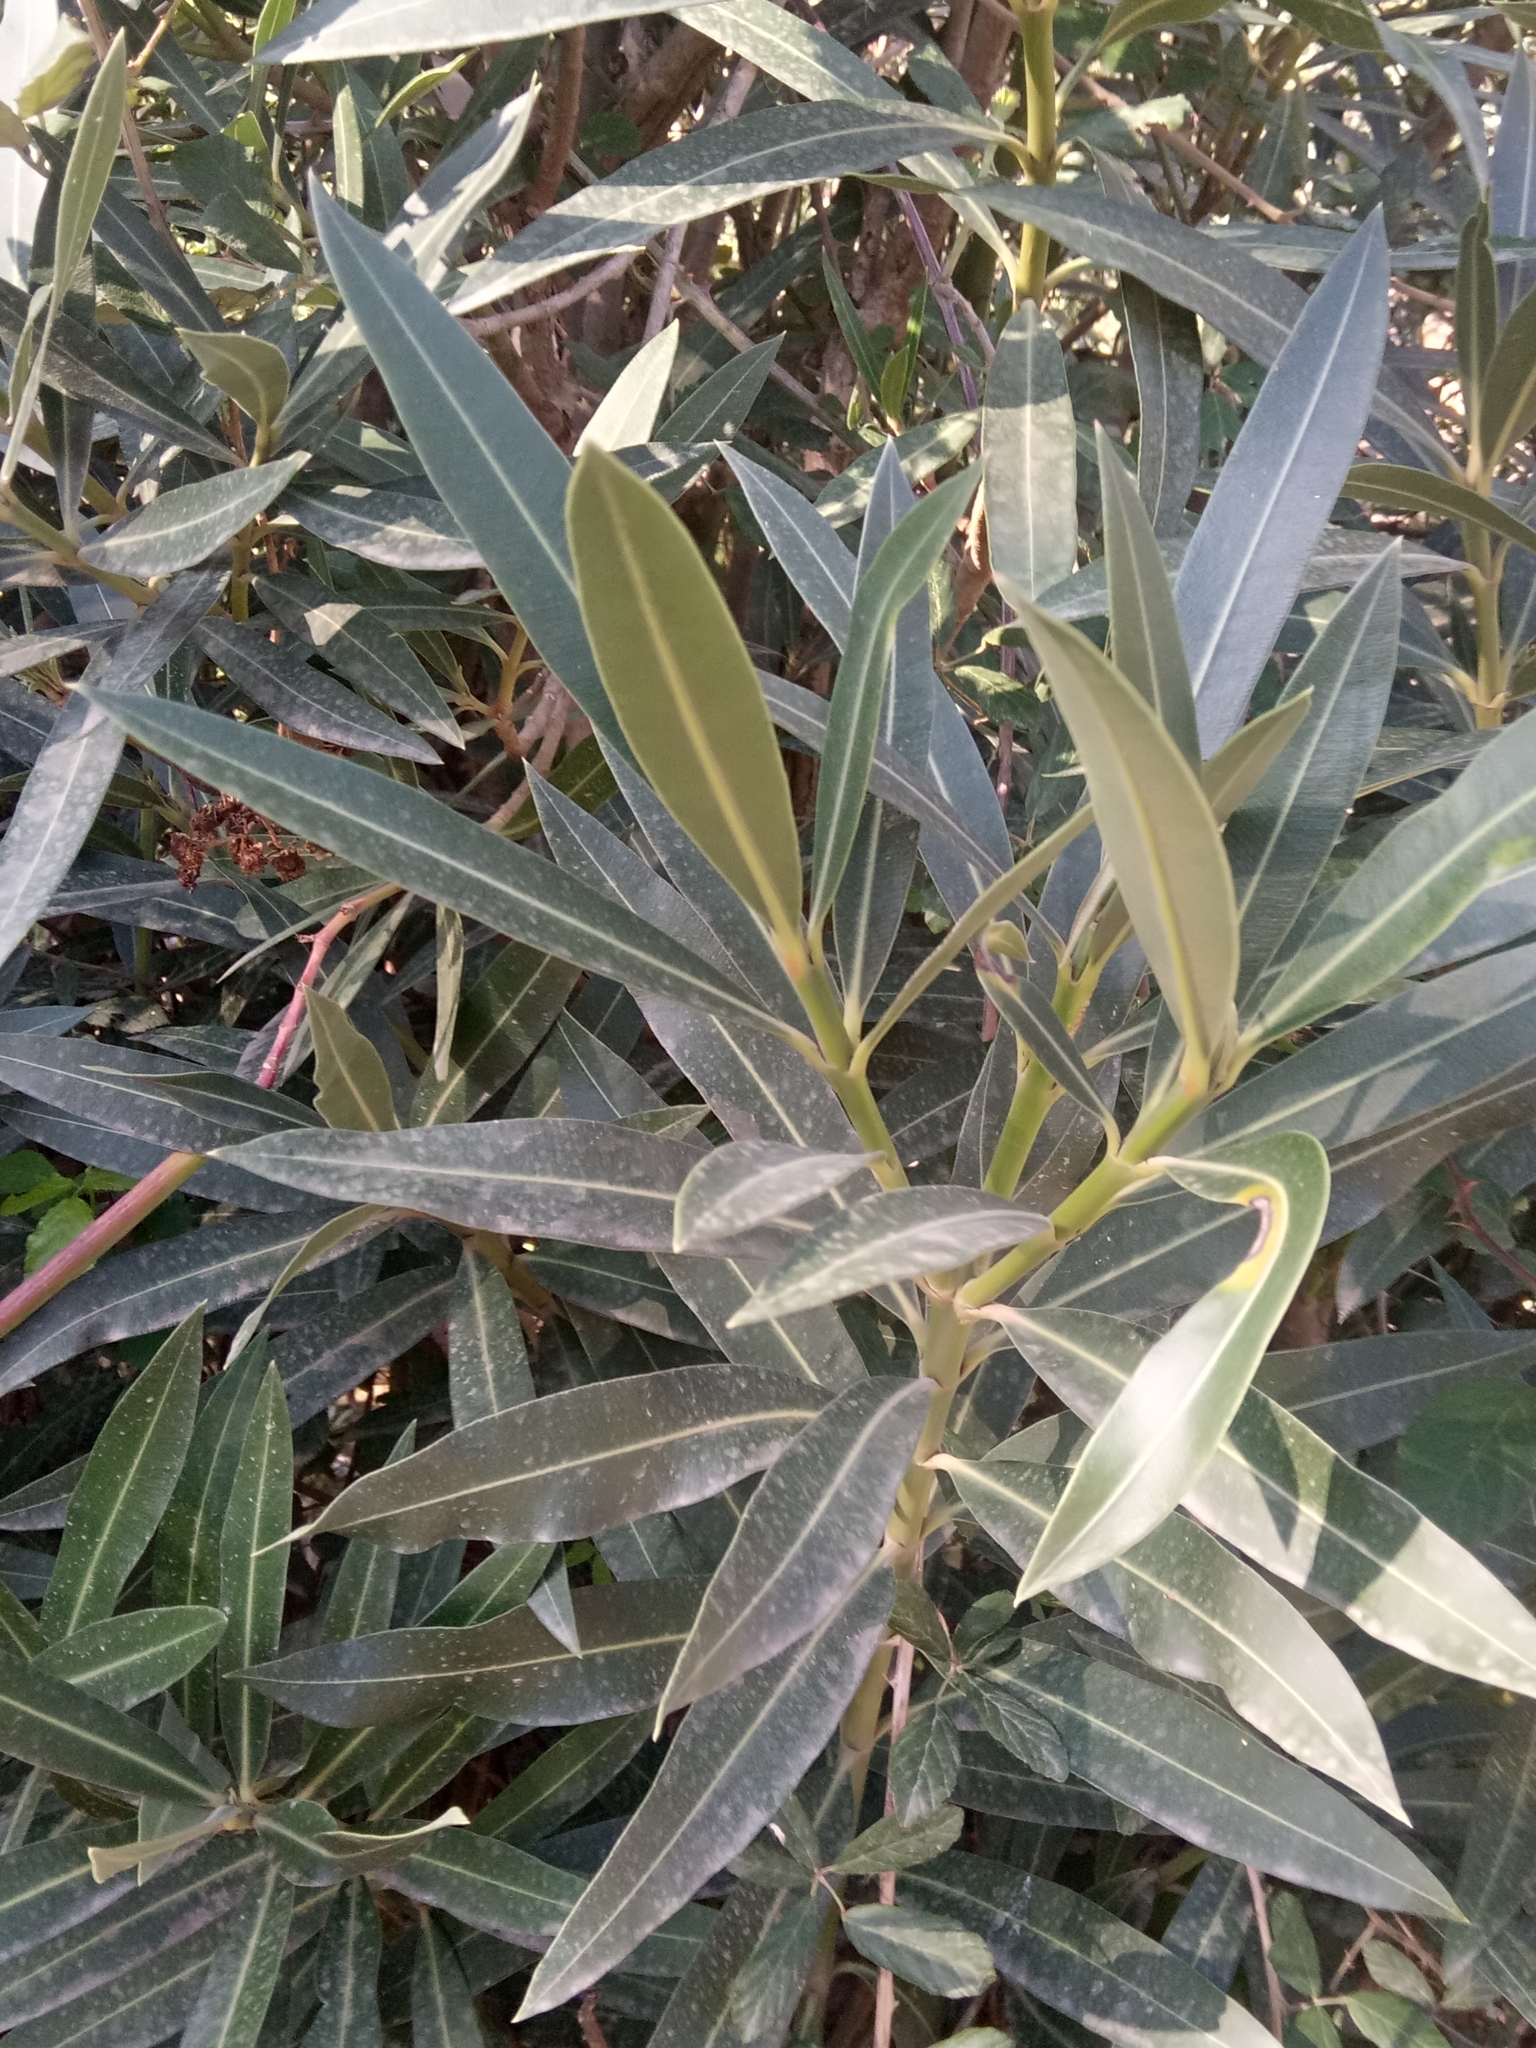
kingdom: Plantae
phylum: Tracheophyta
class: Magnoliopsida
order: Gentianales
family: Apocynaceae
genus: Nerium
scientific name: Nerium oleander
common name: Oleander
